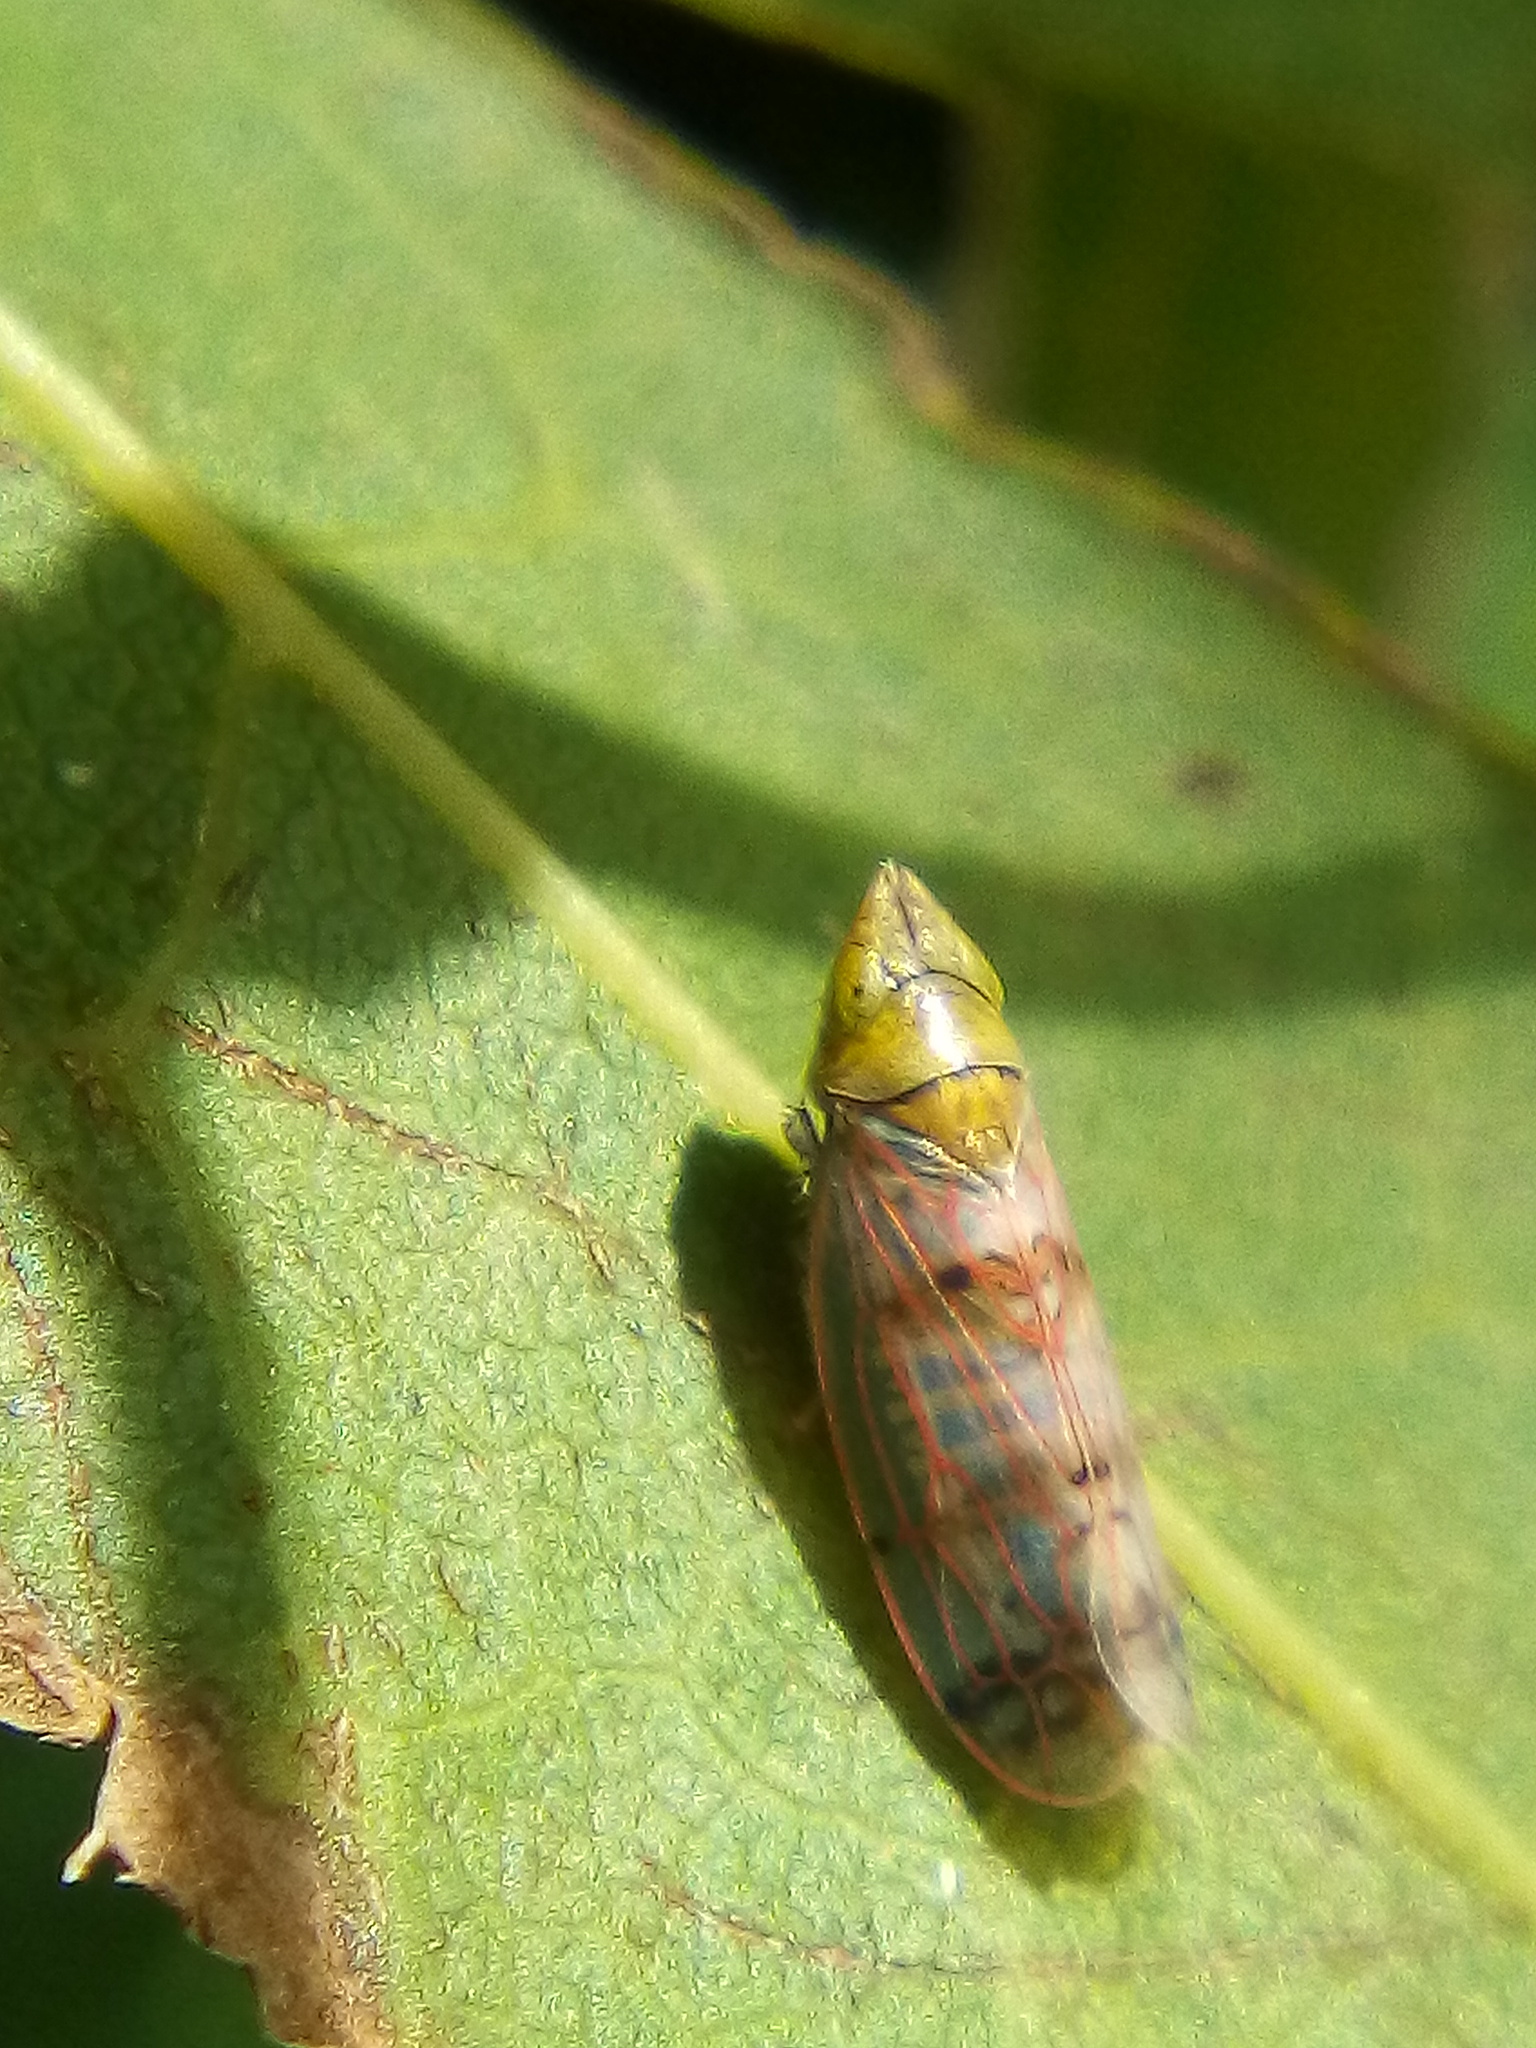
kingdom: Animalia
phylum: Arthropoda
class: Insecta
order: Hemiptera
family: Cicadellidae
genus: Japananus
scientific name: Japananus hyalinus
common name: The japanese maple leafhopper
